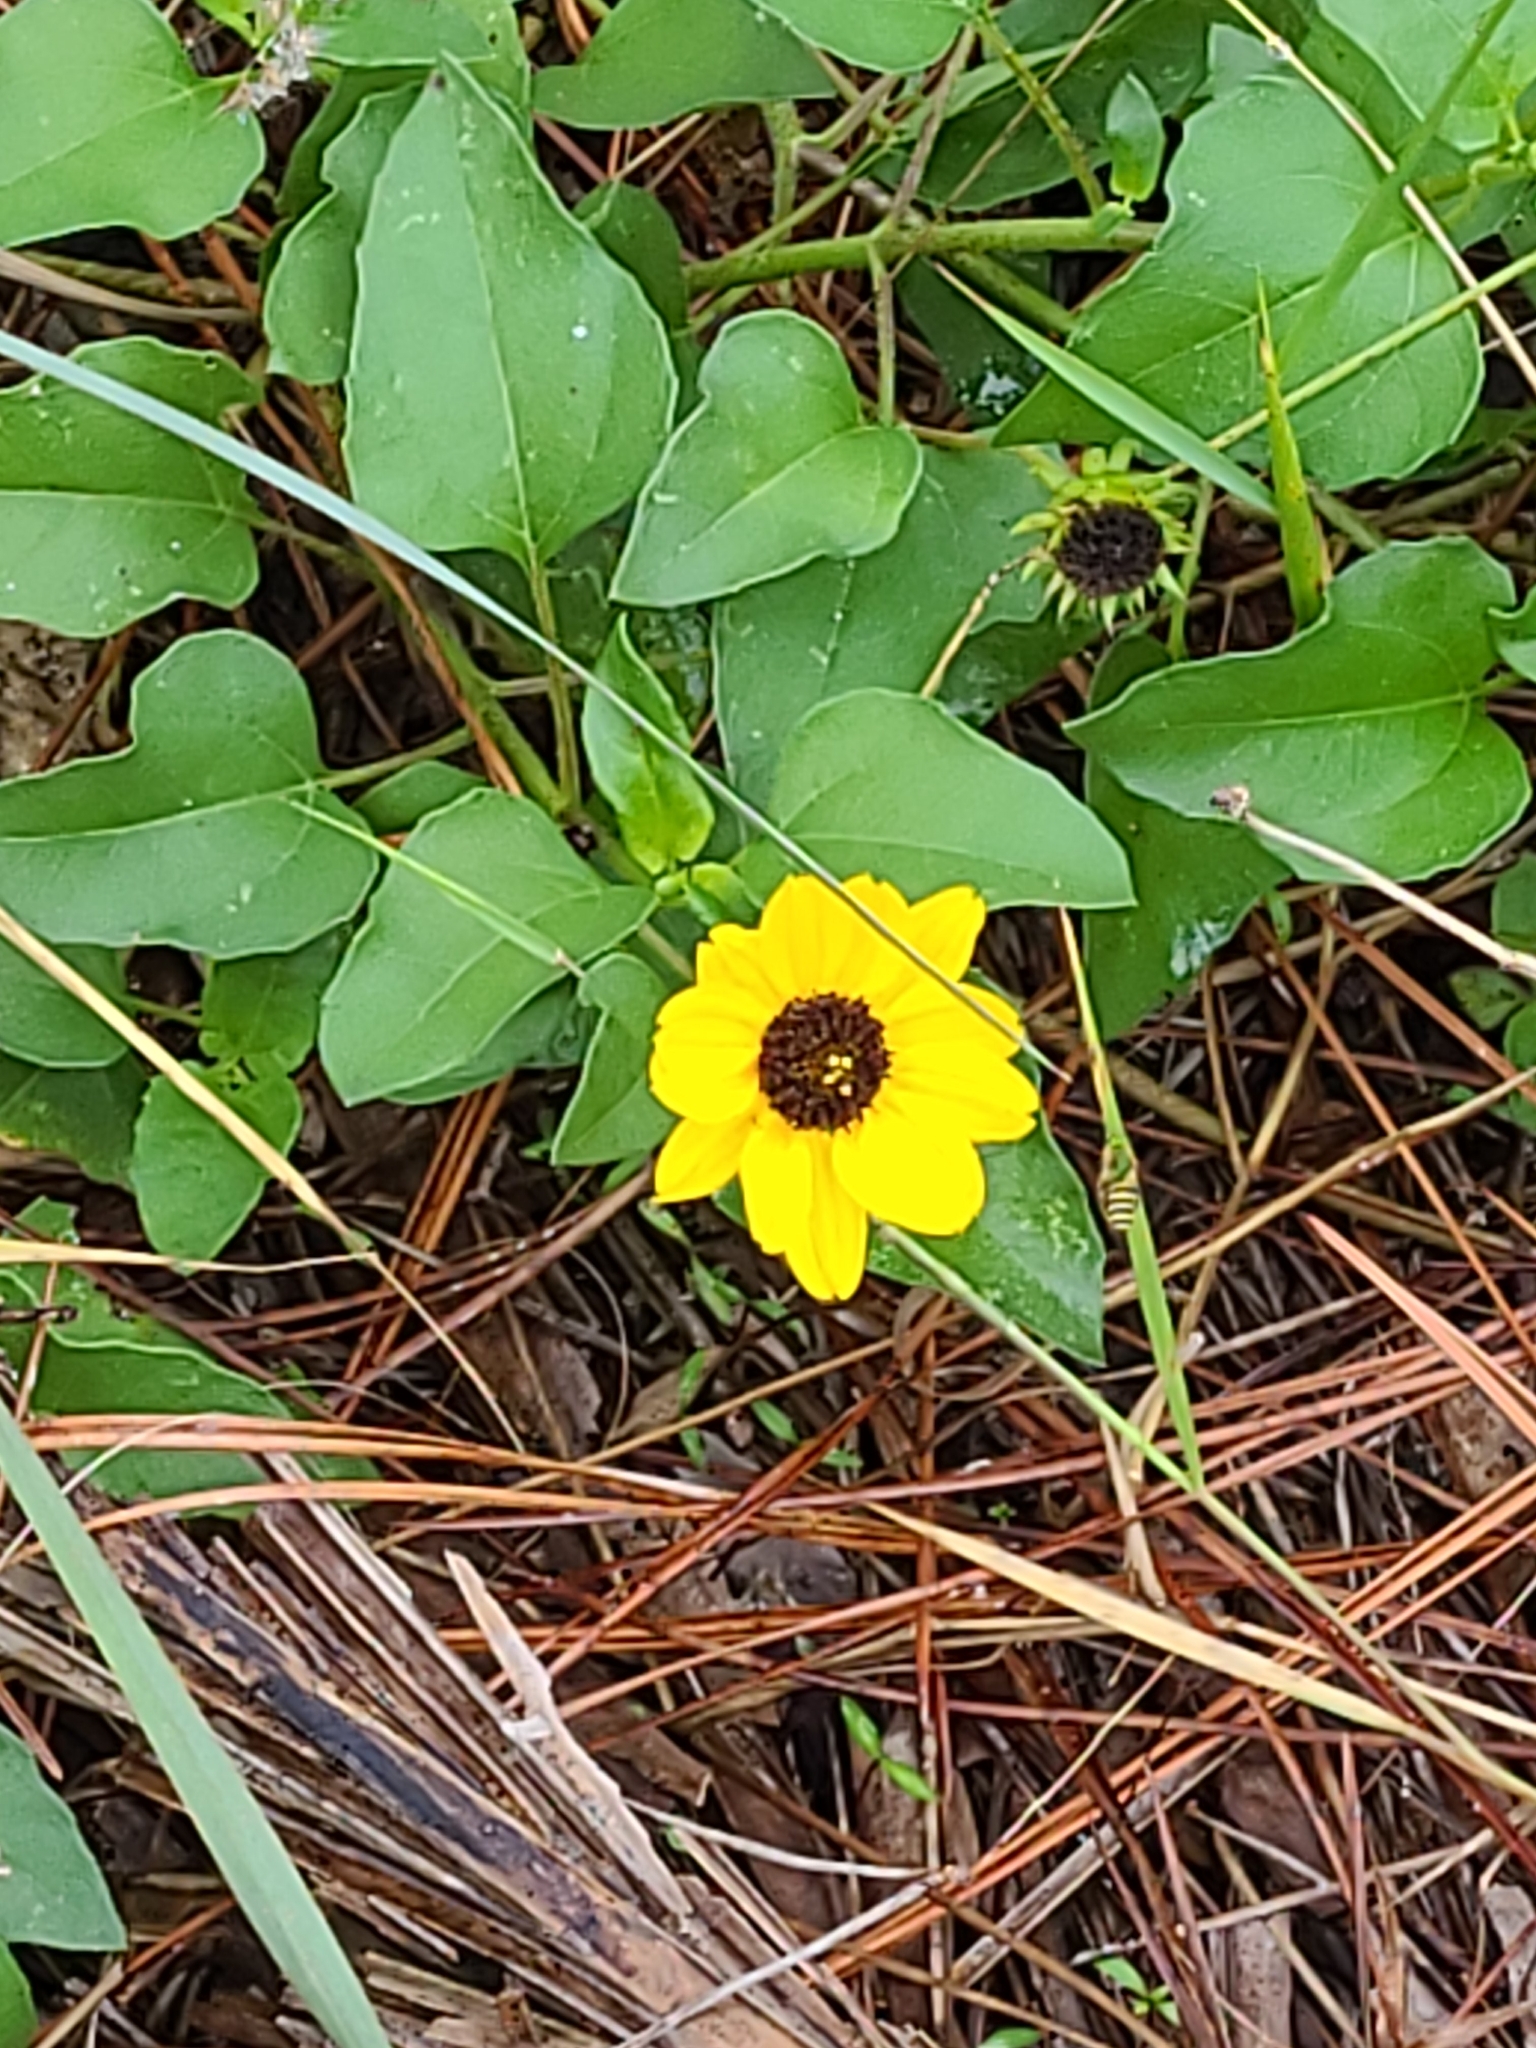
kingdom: Plantae
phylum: Tracheophyta
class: Magnoliopsida
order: Asterales
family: Asteraceae
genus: Helianthus
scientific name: Helianthus debilis
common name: Weak sunflower
